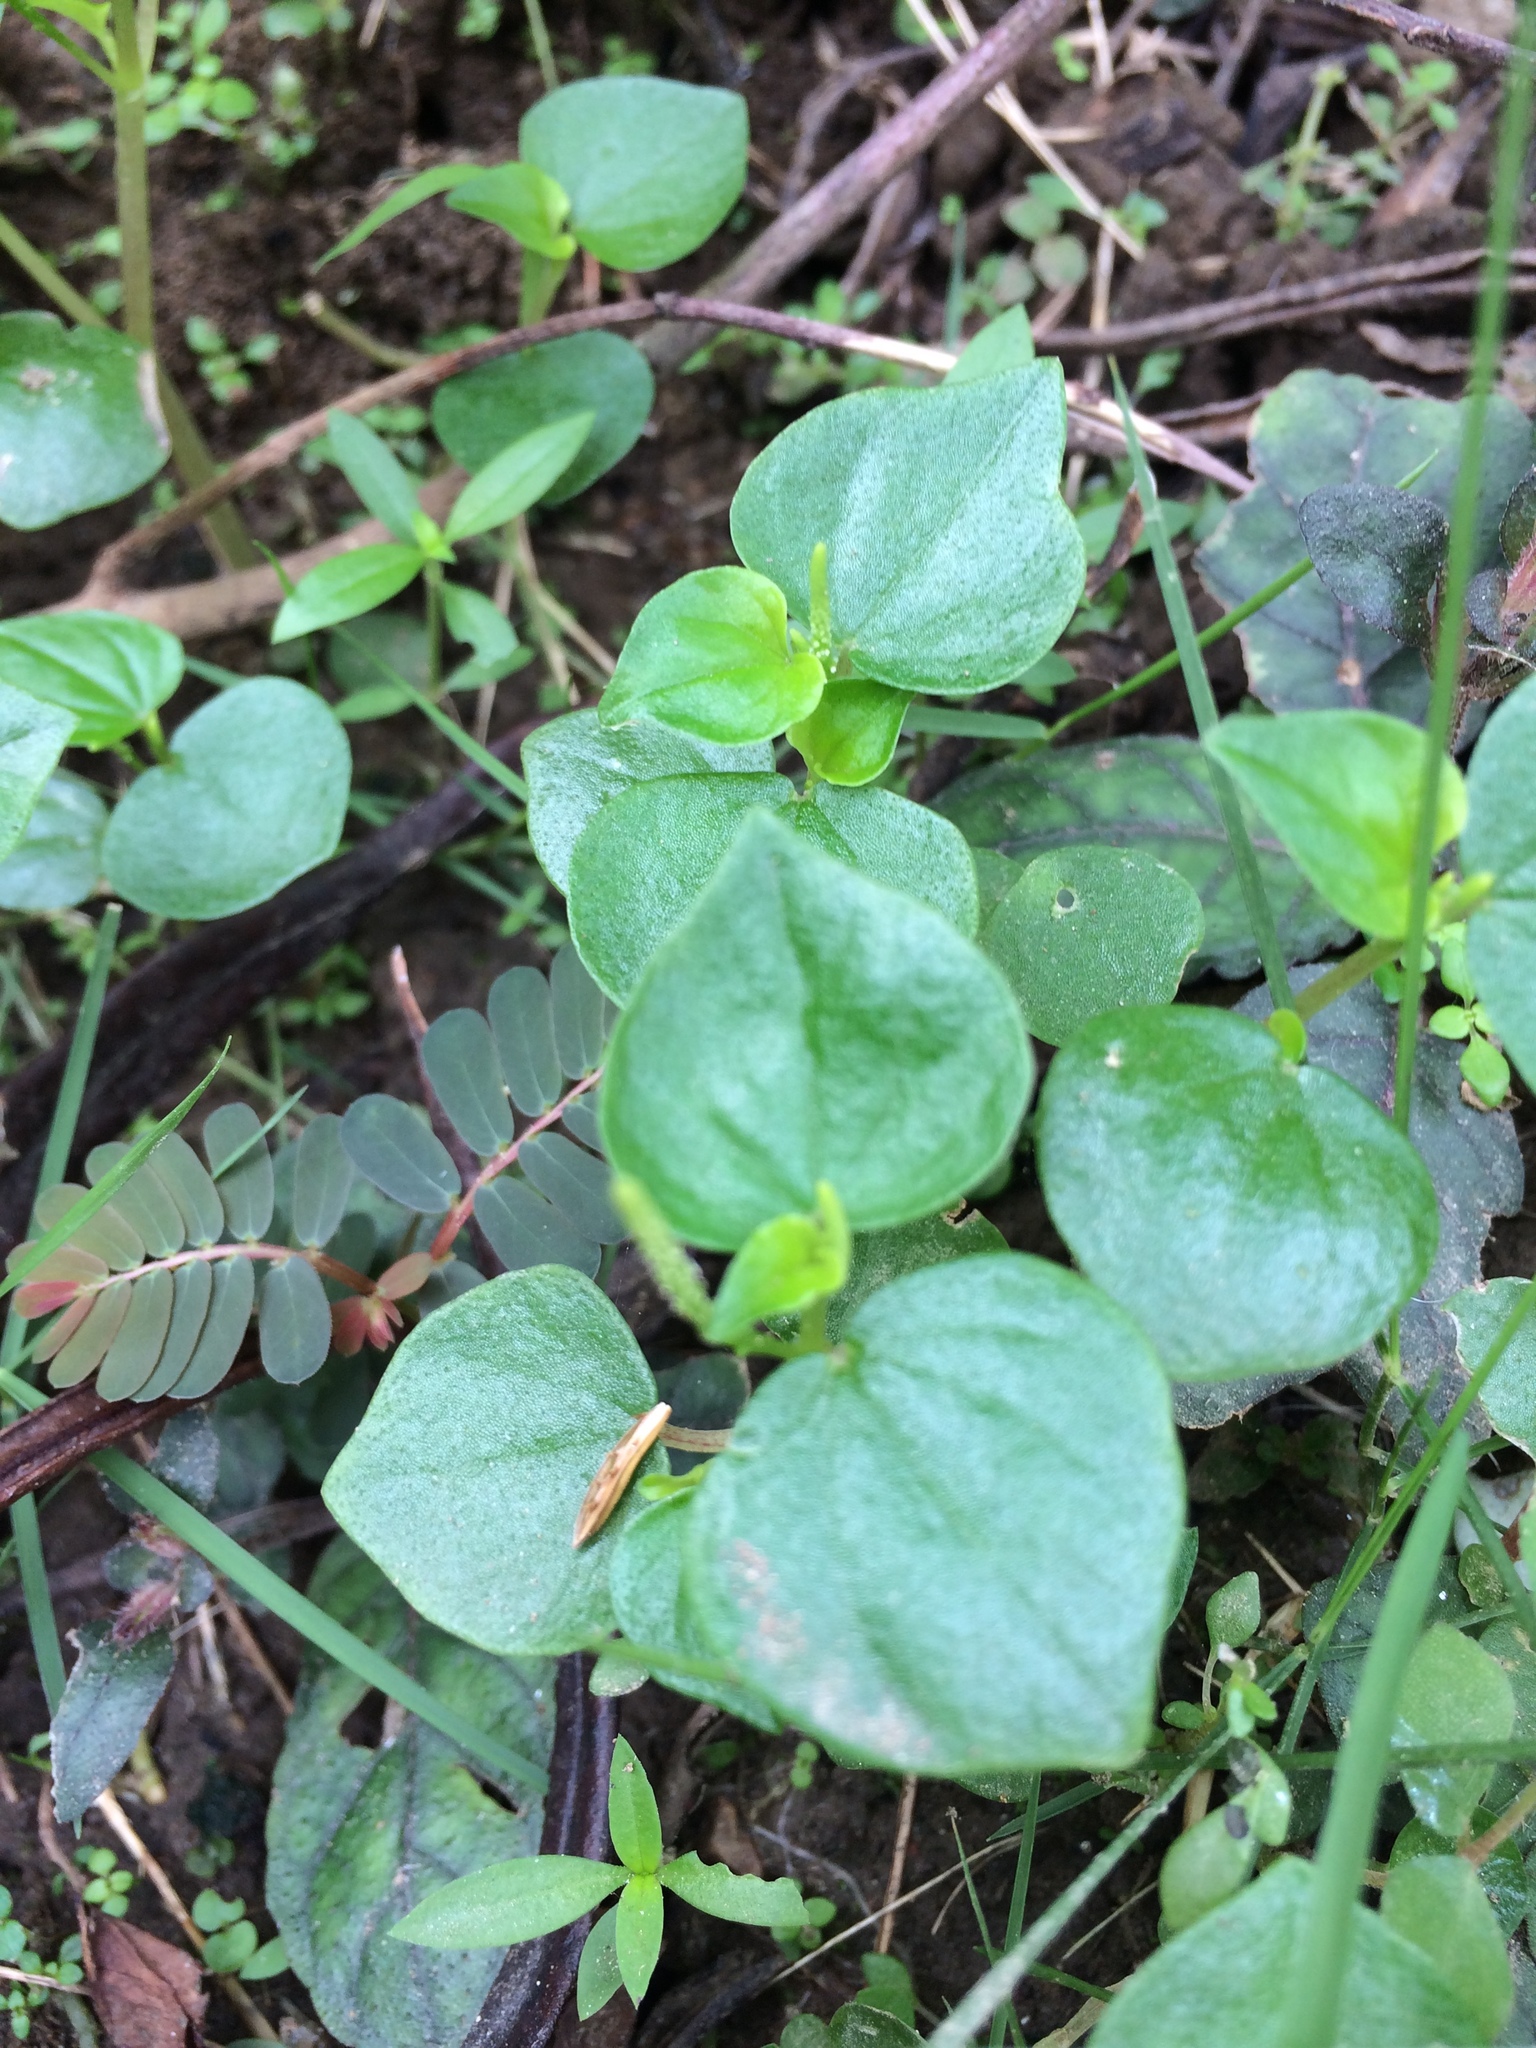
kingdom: Plantae
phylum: Tracheophyta
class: Magnoliopsida
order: Piperales
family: Piperaceae
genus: Peperomia
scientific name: Peperomia pellucida
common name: Man to man
